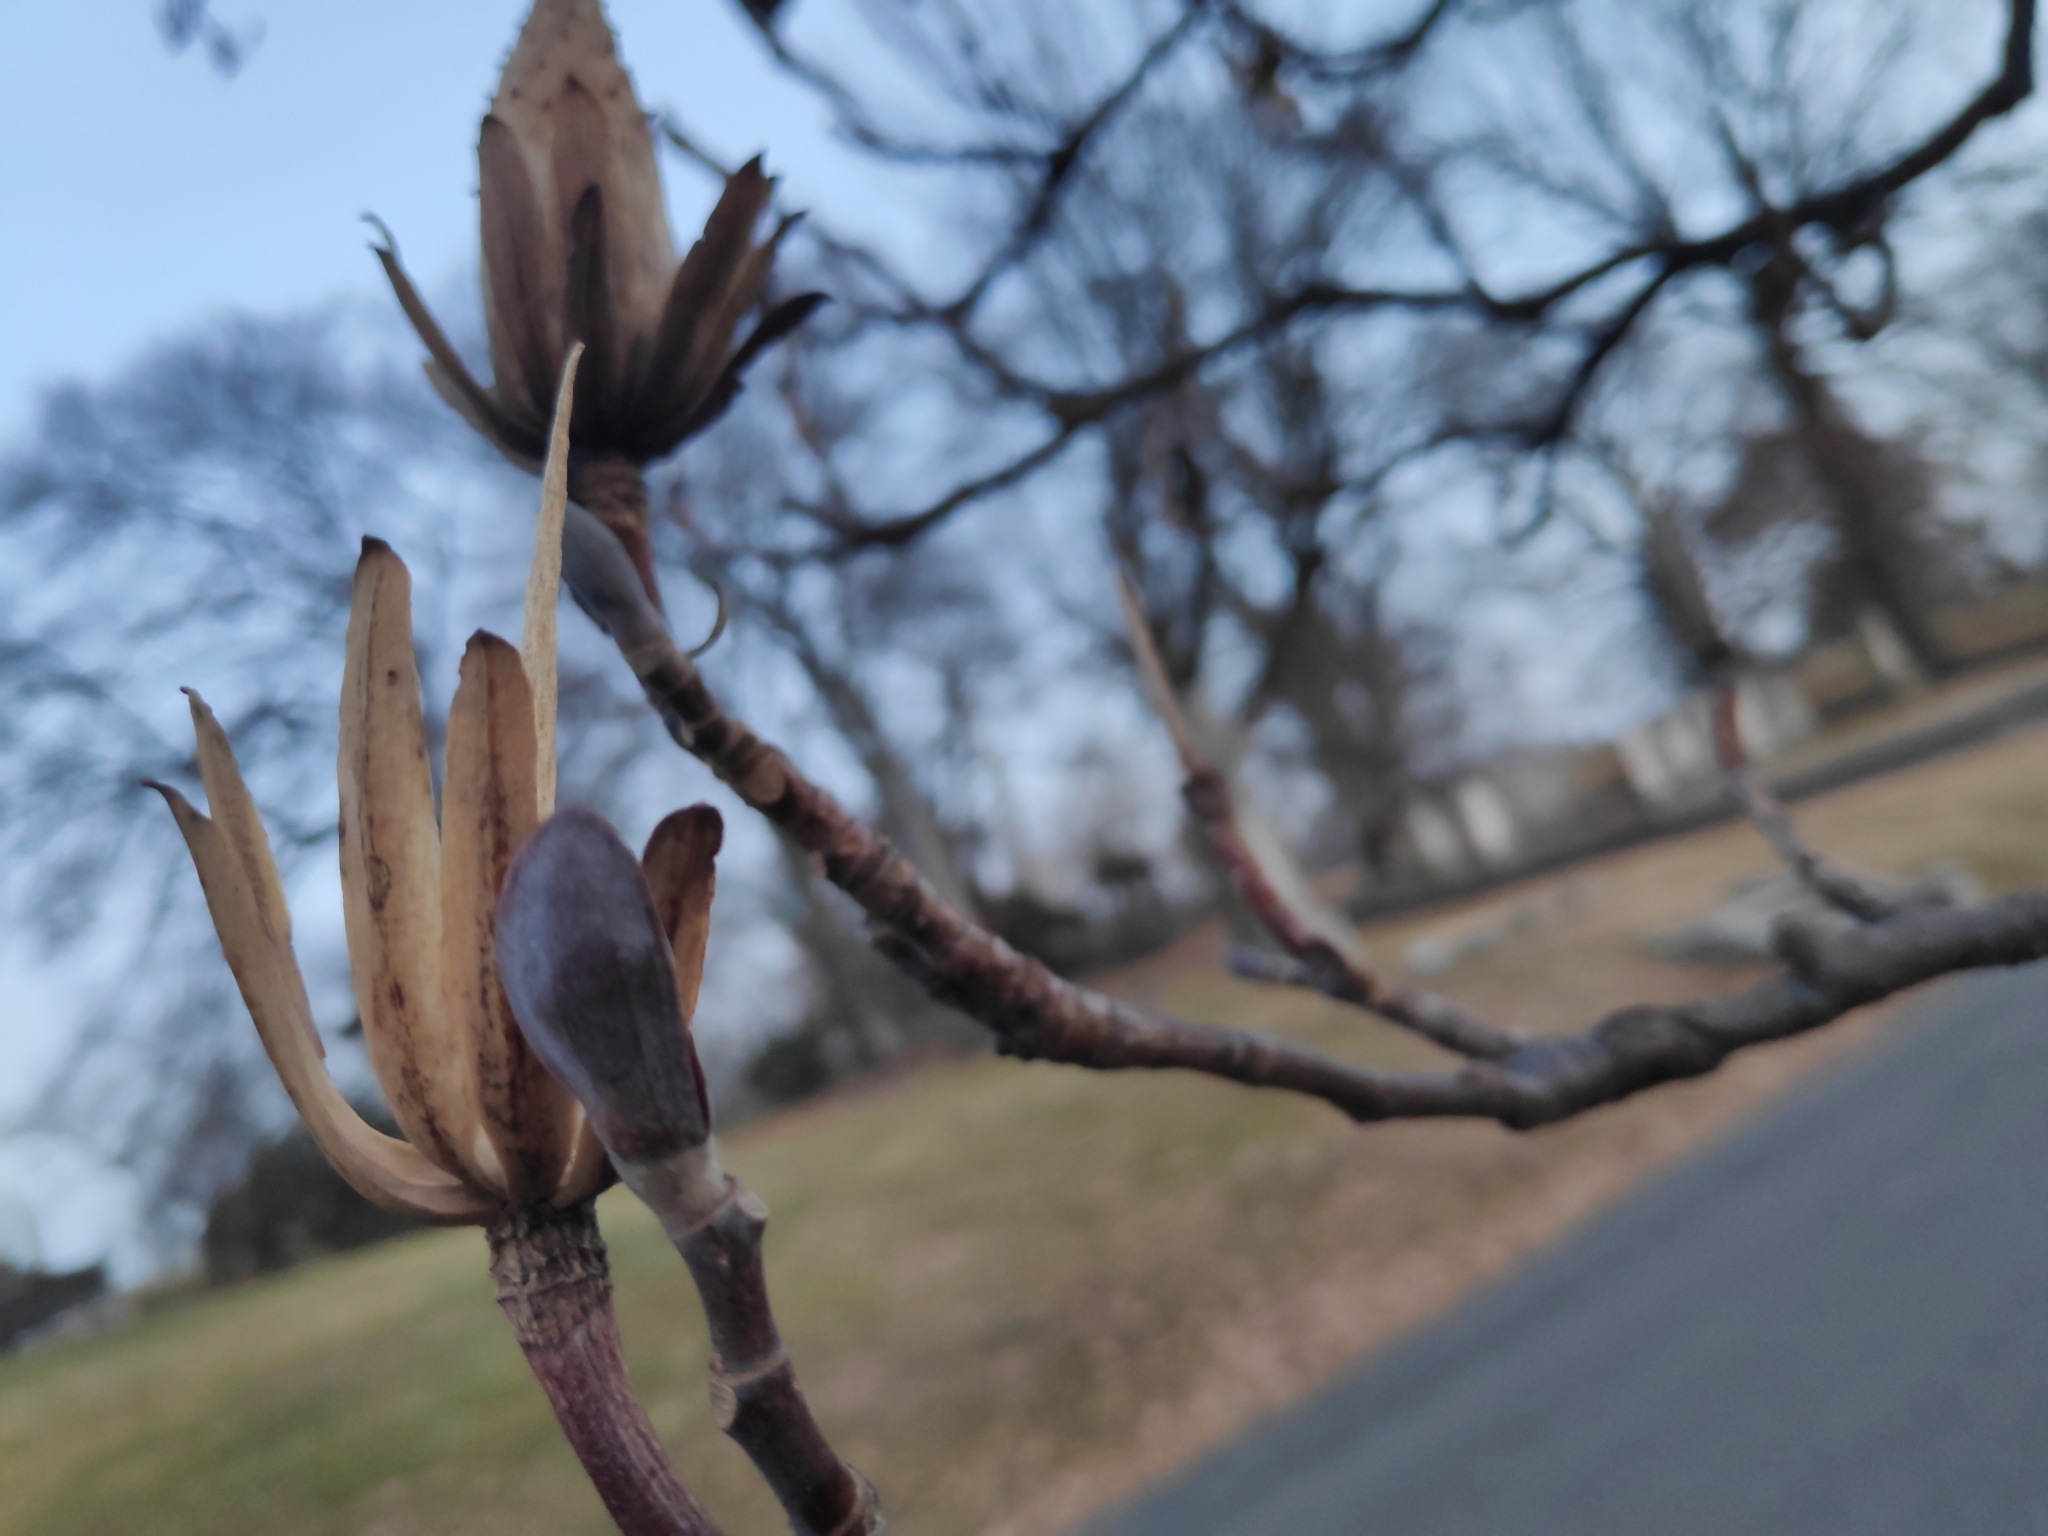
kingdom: Plantae
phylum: Tracheophyta
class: Magnoliopsida
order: Magnoliales
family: Magnoliaceae
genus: Liriodendron
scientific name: Liriodendron tulipifera
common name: Tulip tree
